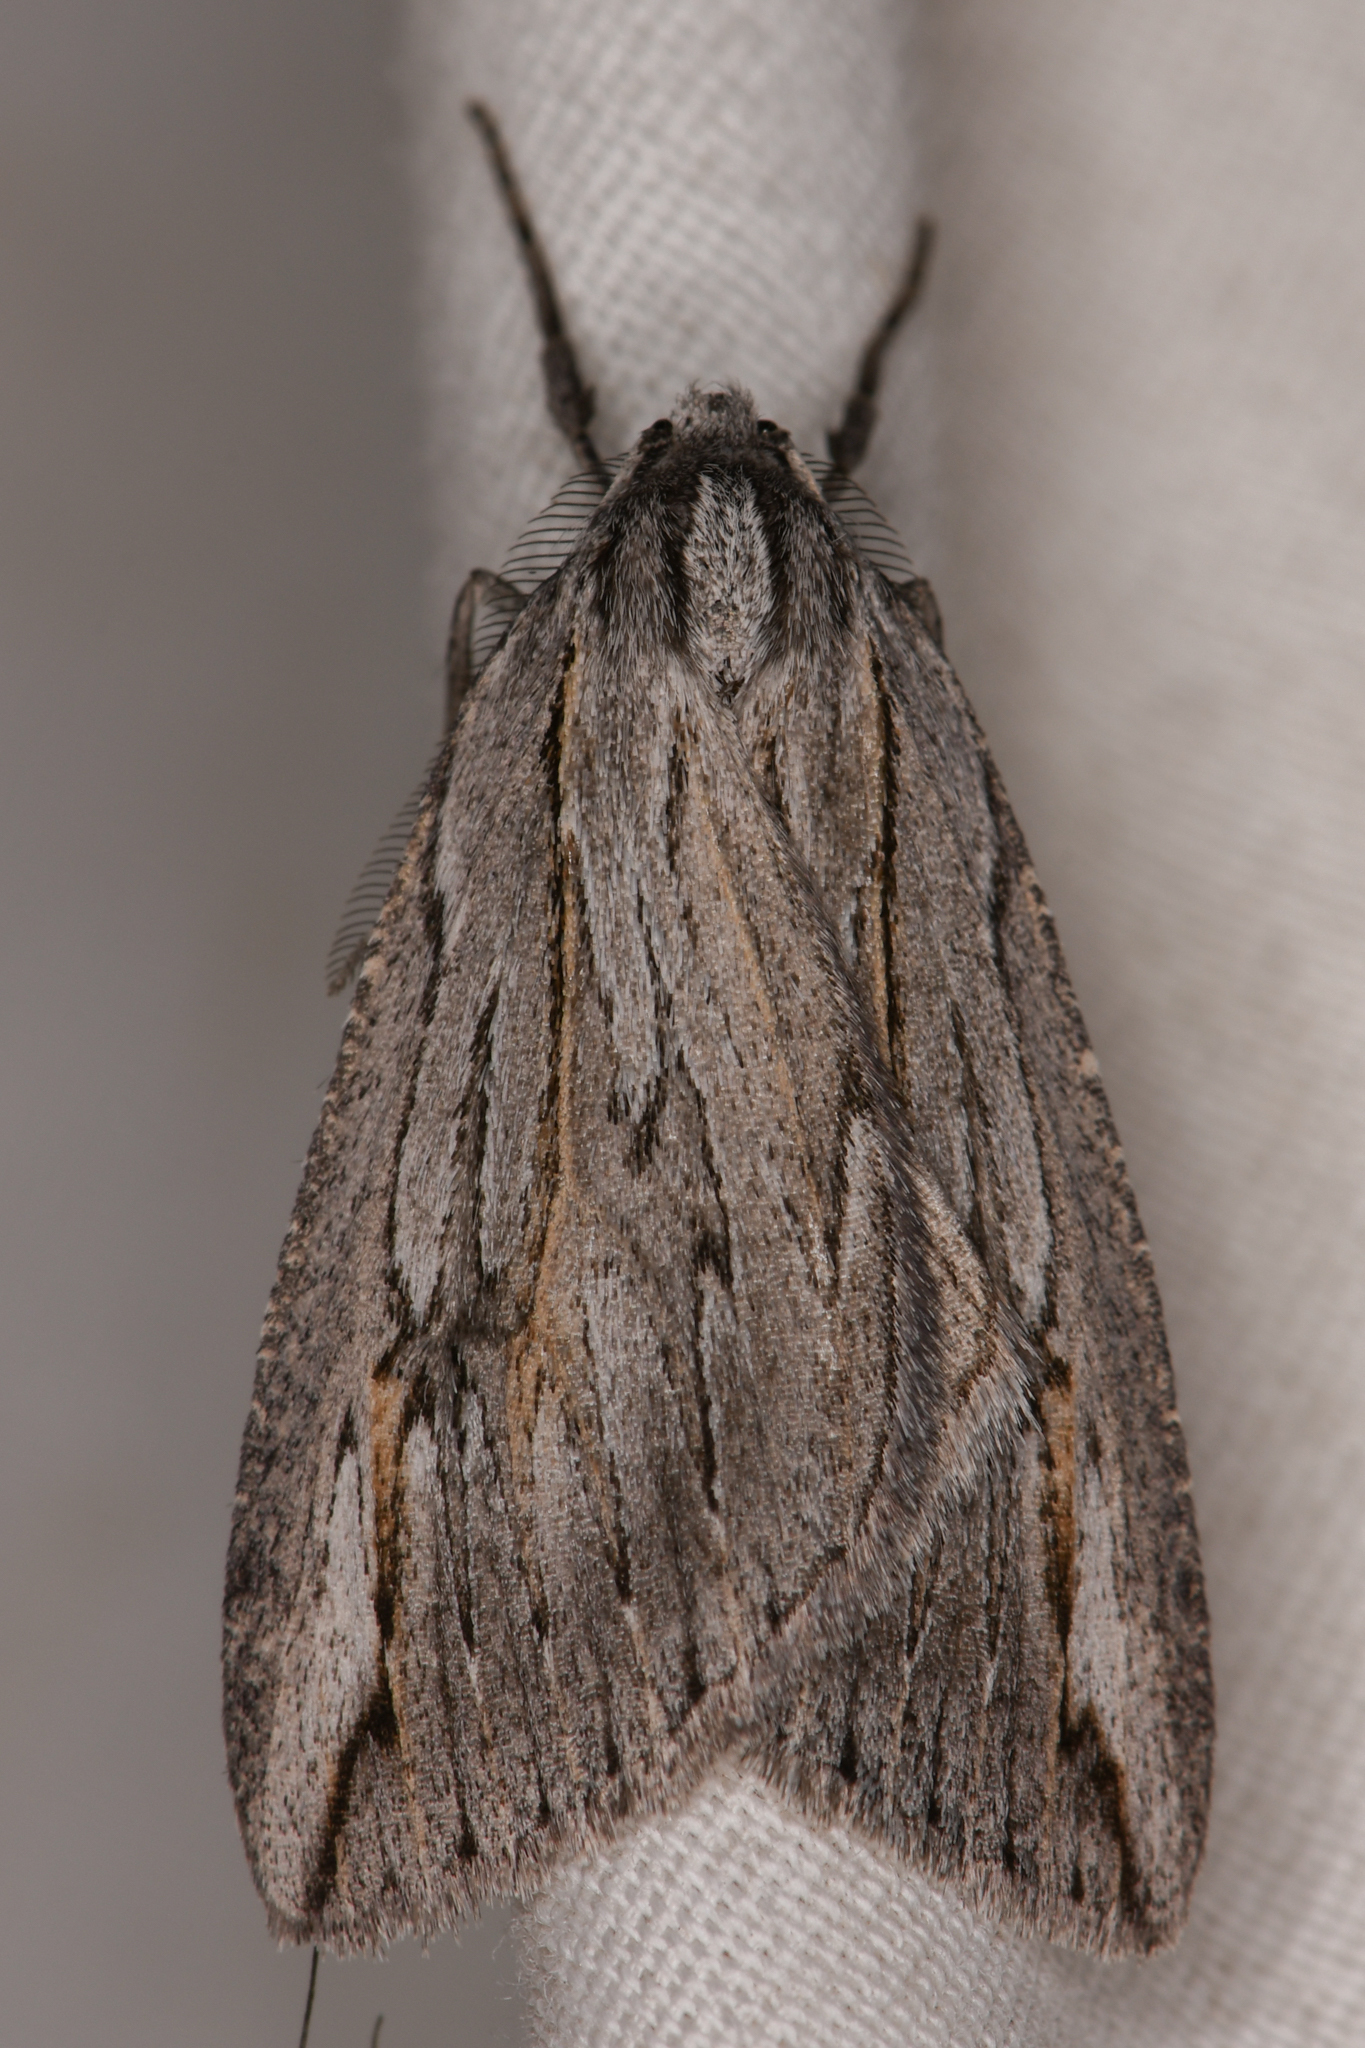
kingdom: Animalia
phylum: Arthropoda
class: Insecta
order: Lepidoptera
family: Geometridae
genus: Parexcelsa
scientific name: Parexcelsa ultraria
